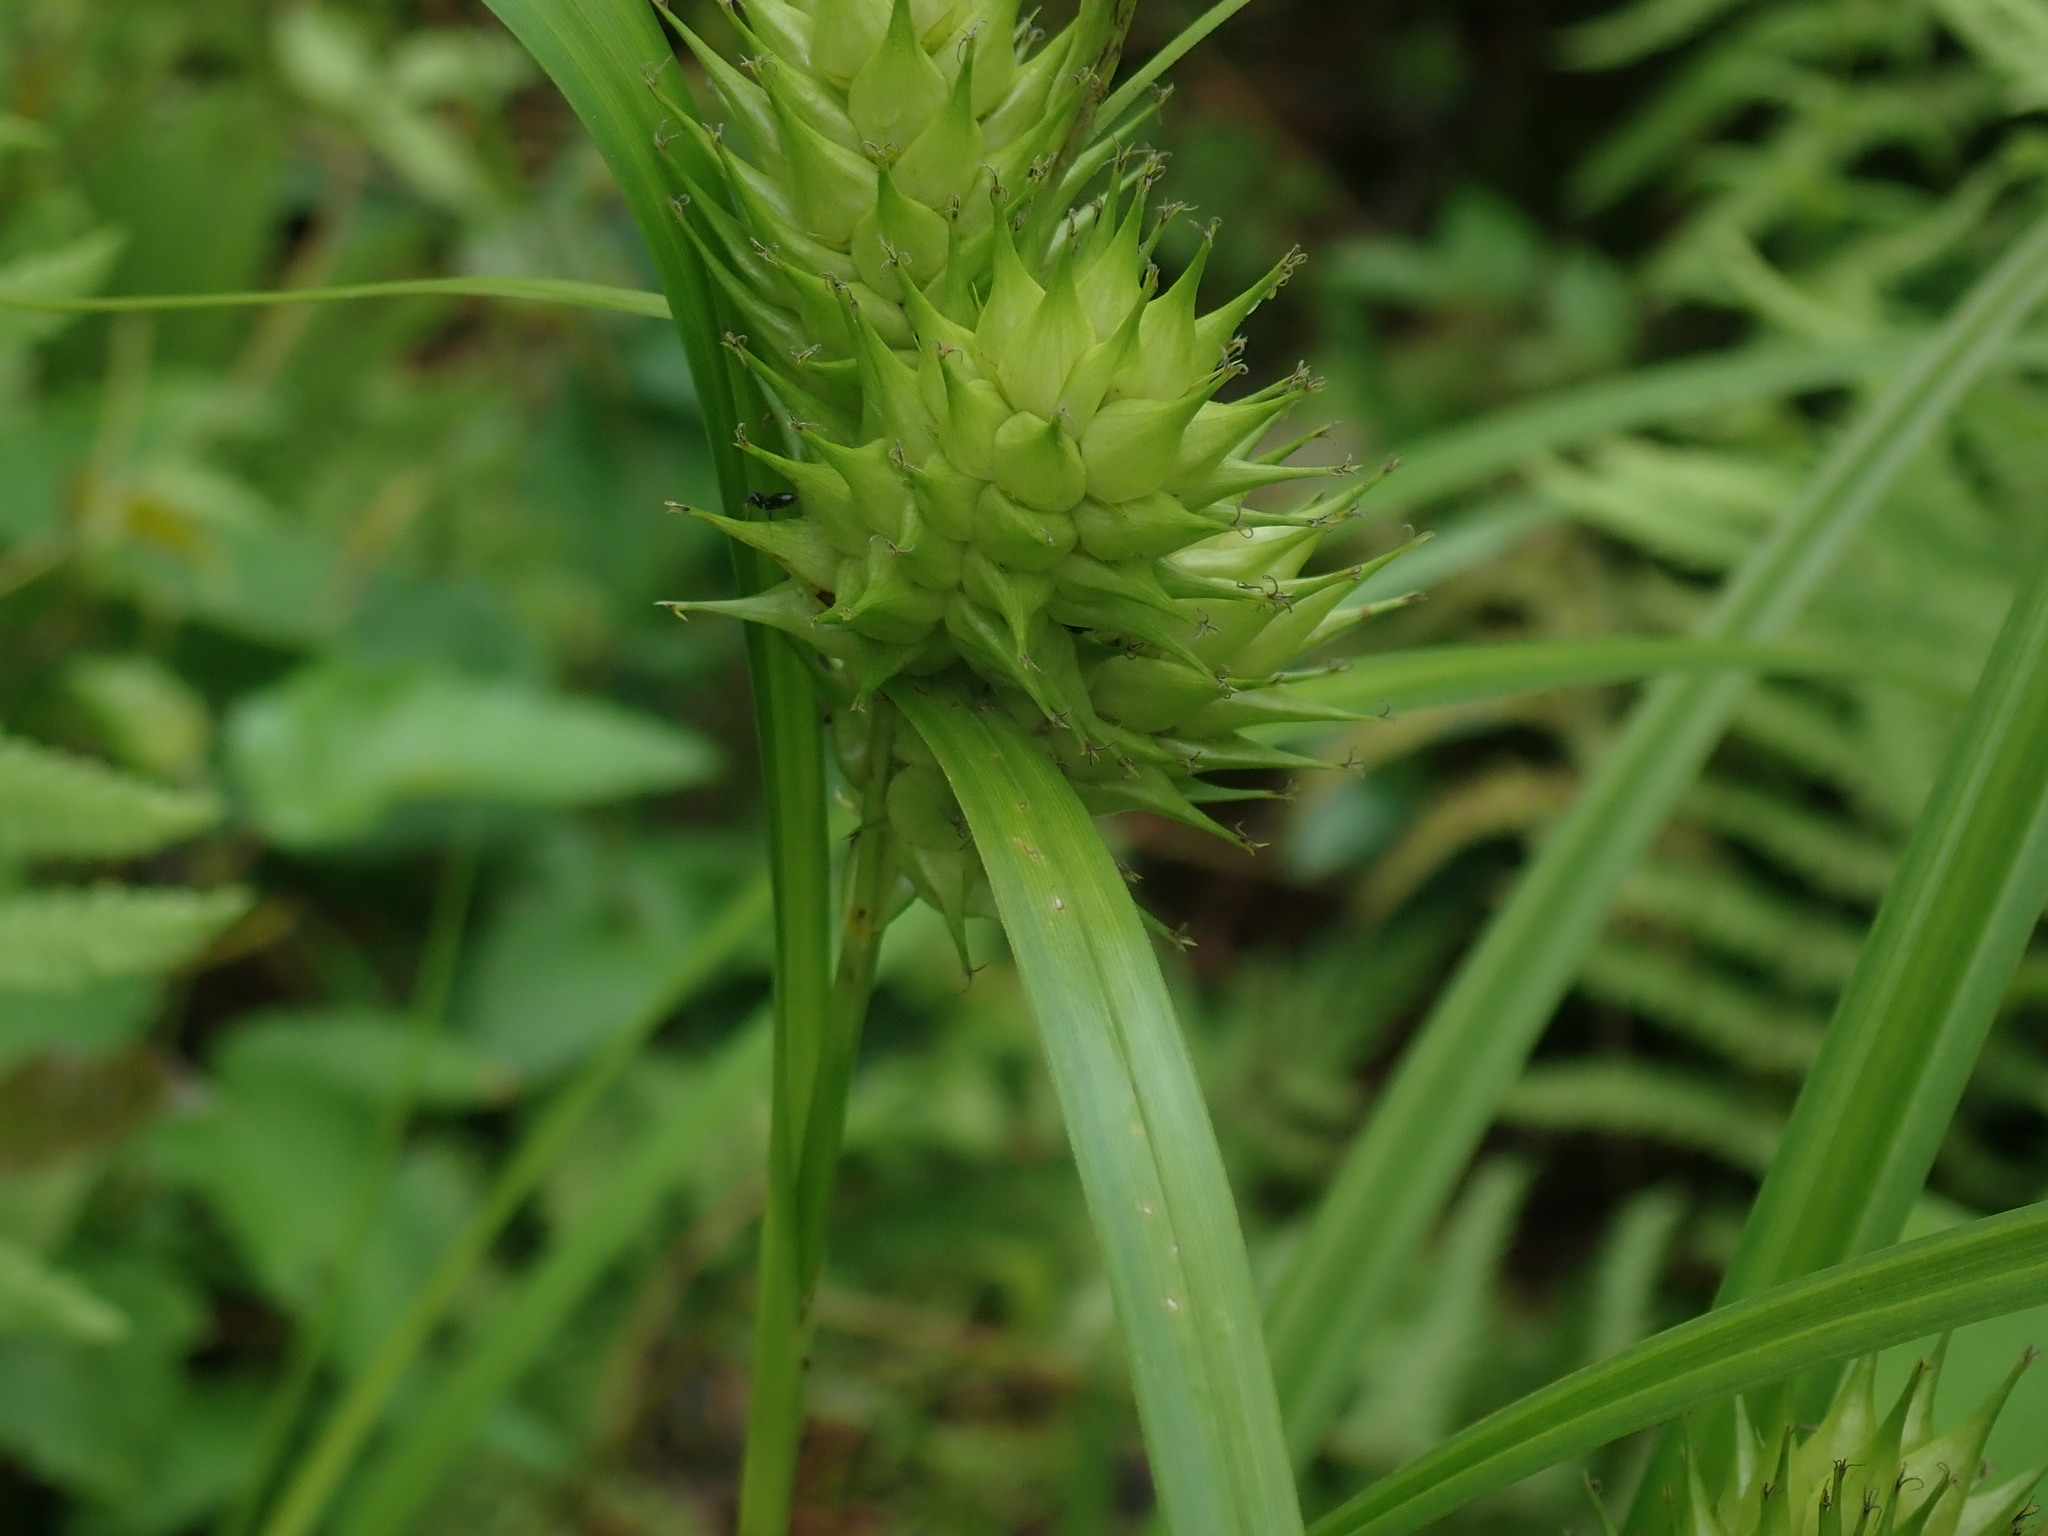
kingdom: Plantae
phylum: Tracheophyta
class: Liliopsida
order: Poales
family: Cyperaceae
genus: Carex
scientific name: Carex lupulina
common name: Hop sedge
